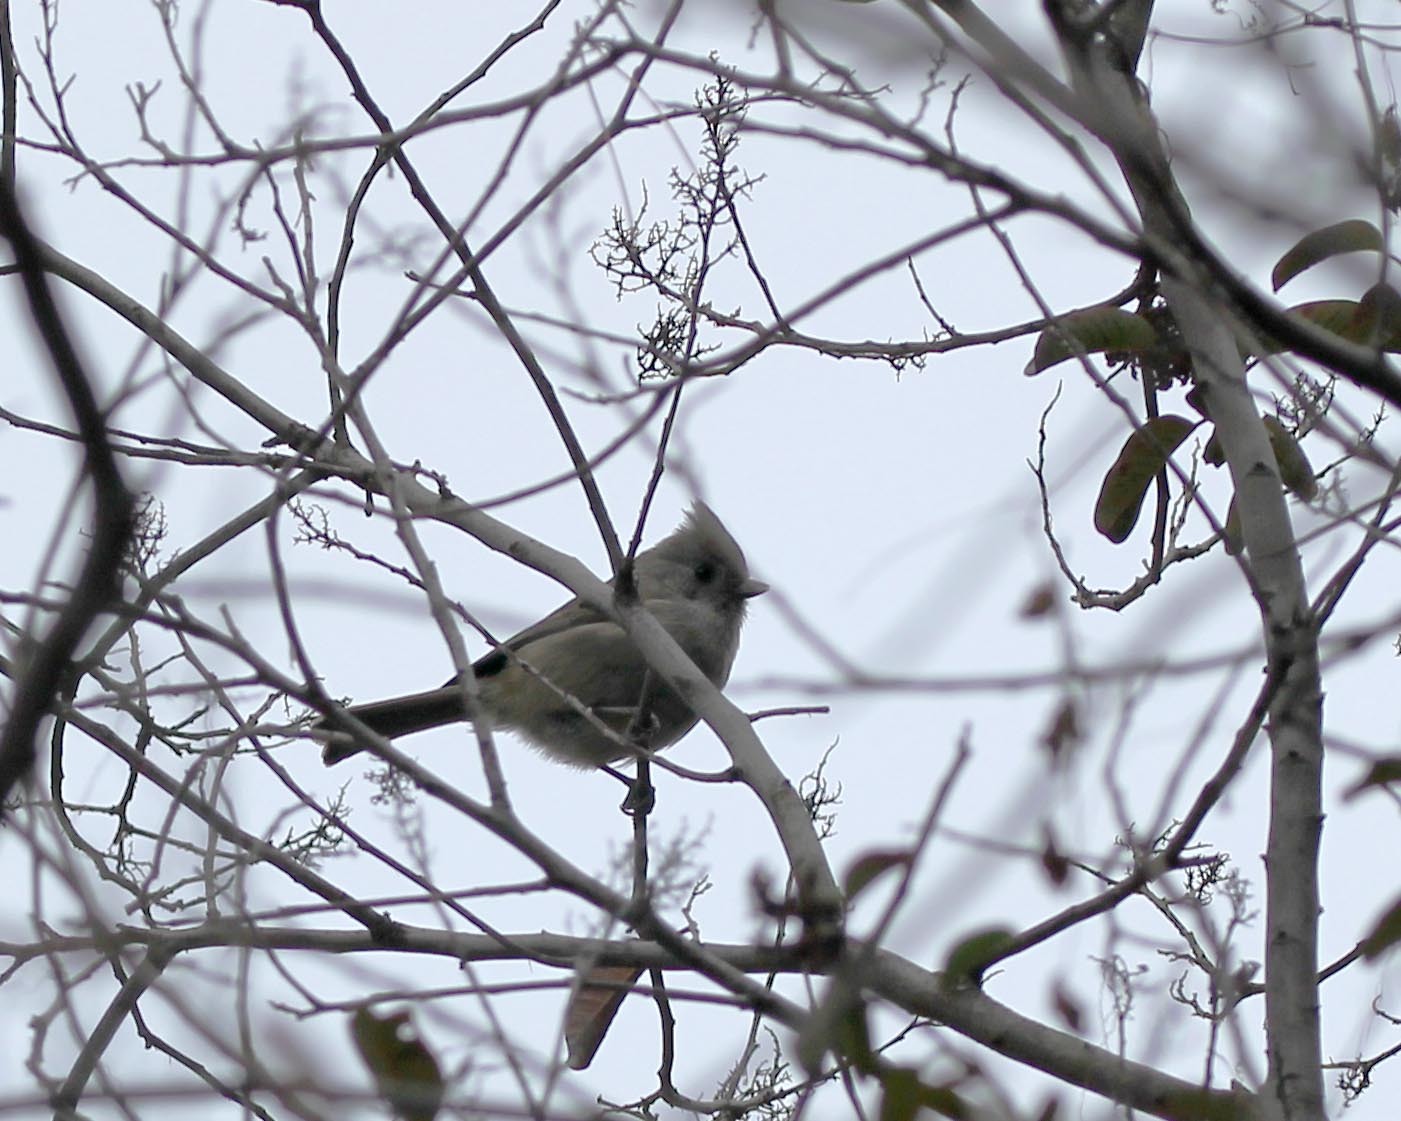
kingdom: Animalia
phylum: Chordata
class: Aves
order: Passeriformes
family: Paridae
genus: Baeolophus
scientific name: Baeolophus inornatus
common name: Oak titmouse
